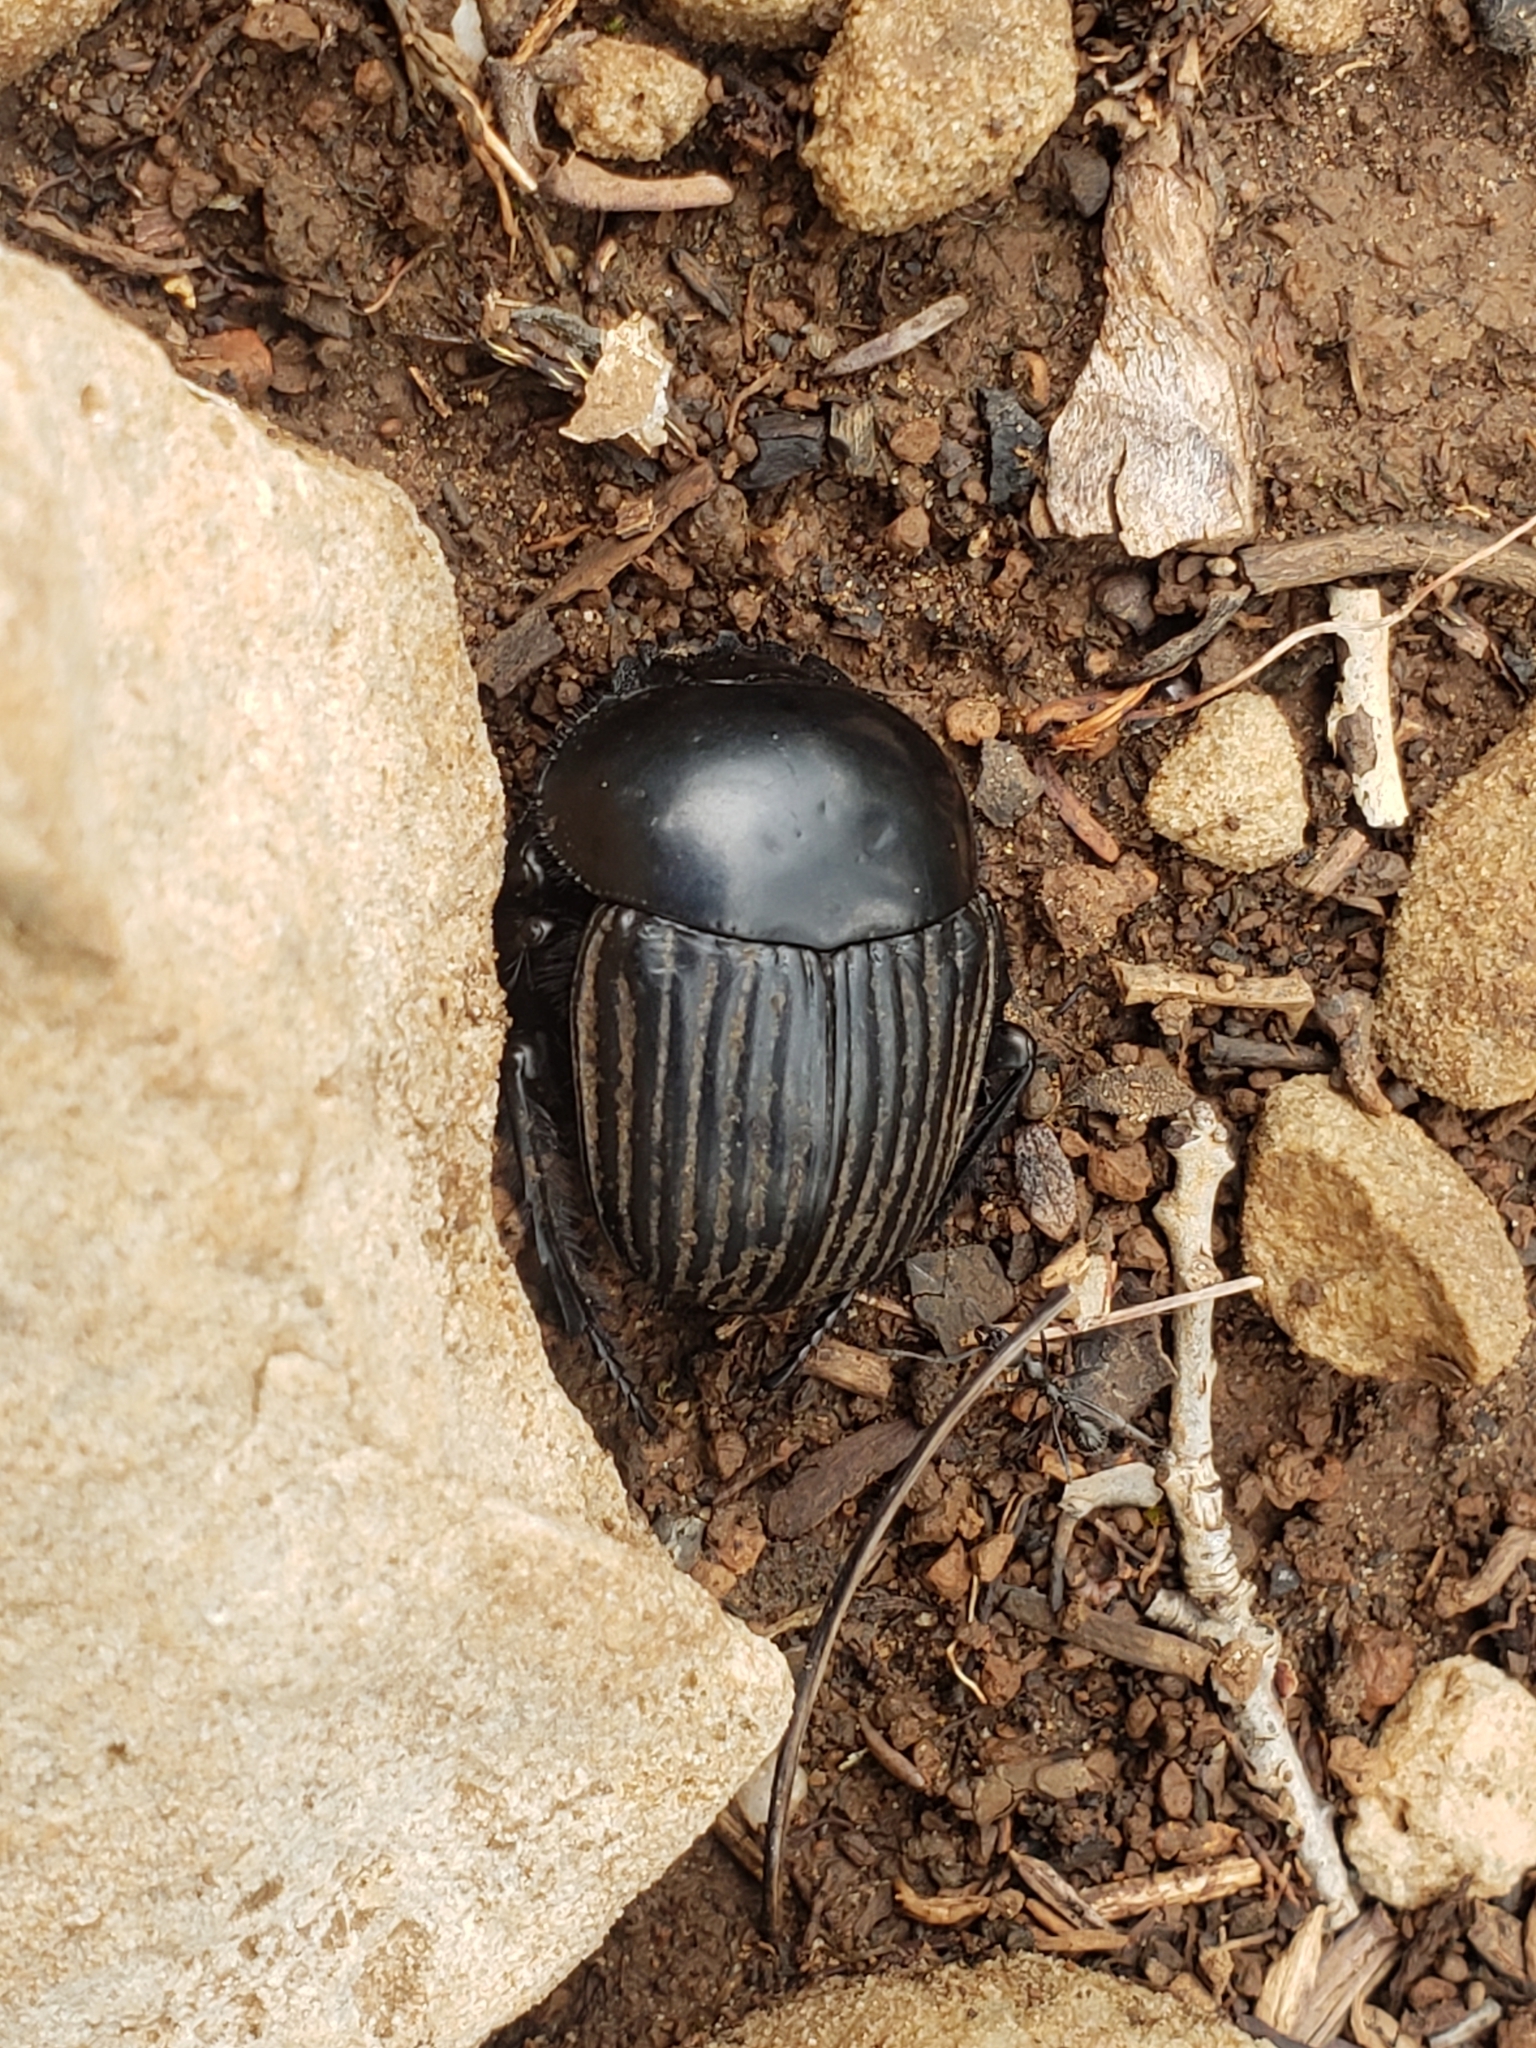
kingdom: Animalia
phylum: Arthropoda
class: Insecta
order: Coleoptera
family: Scarabaeidae
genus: Ateuchetus
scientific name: Ateuchetus laticollis
